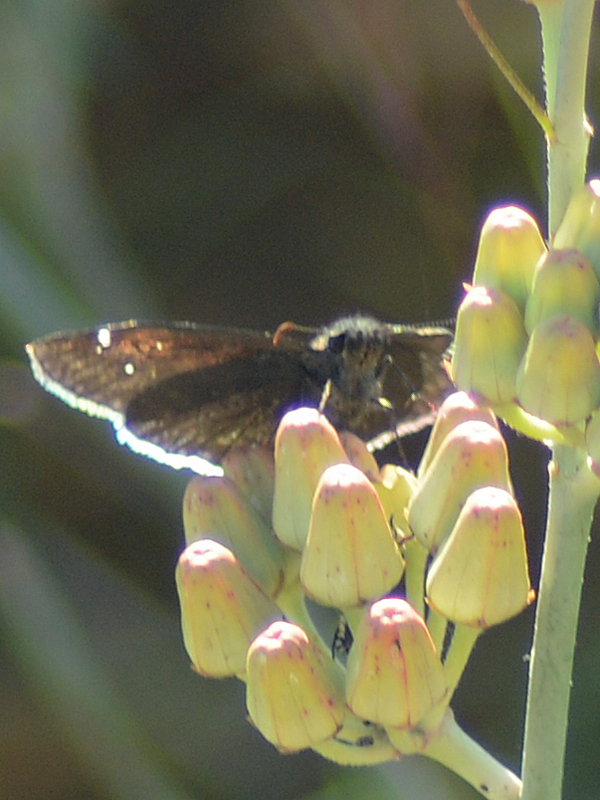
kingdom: Animalia
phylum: Arthropoda
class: Insecta
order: Lepidoptera
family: Hesperiidae
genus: Erynnis
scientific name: Erynnis funeralis
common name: Funereal duskywing
